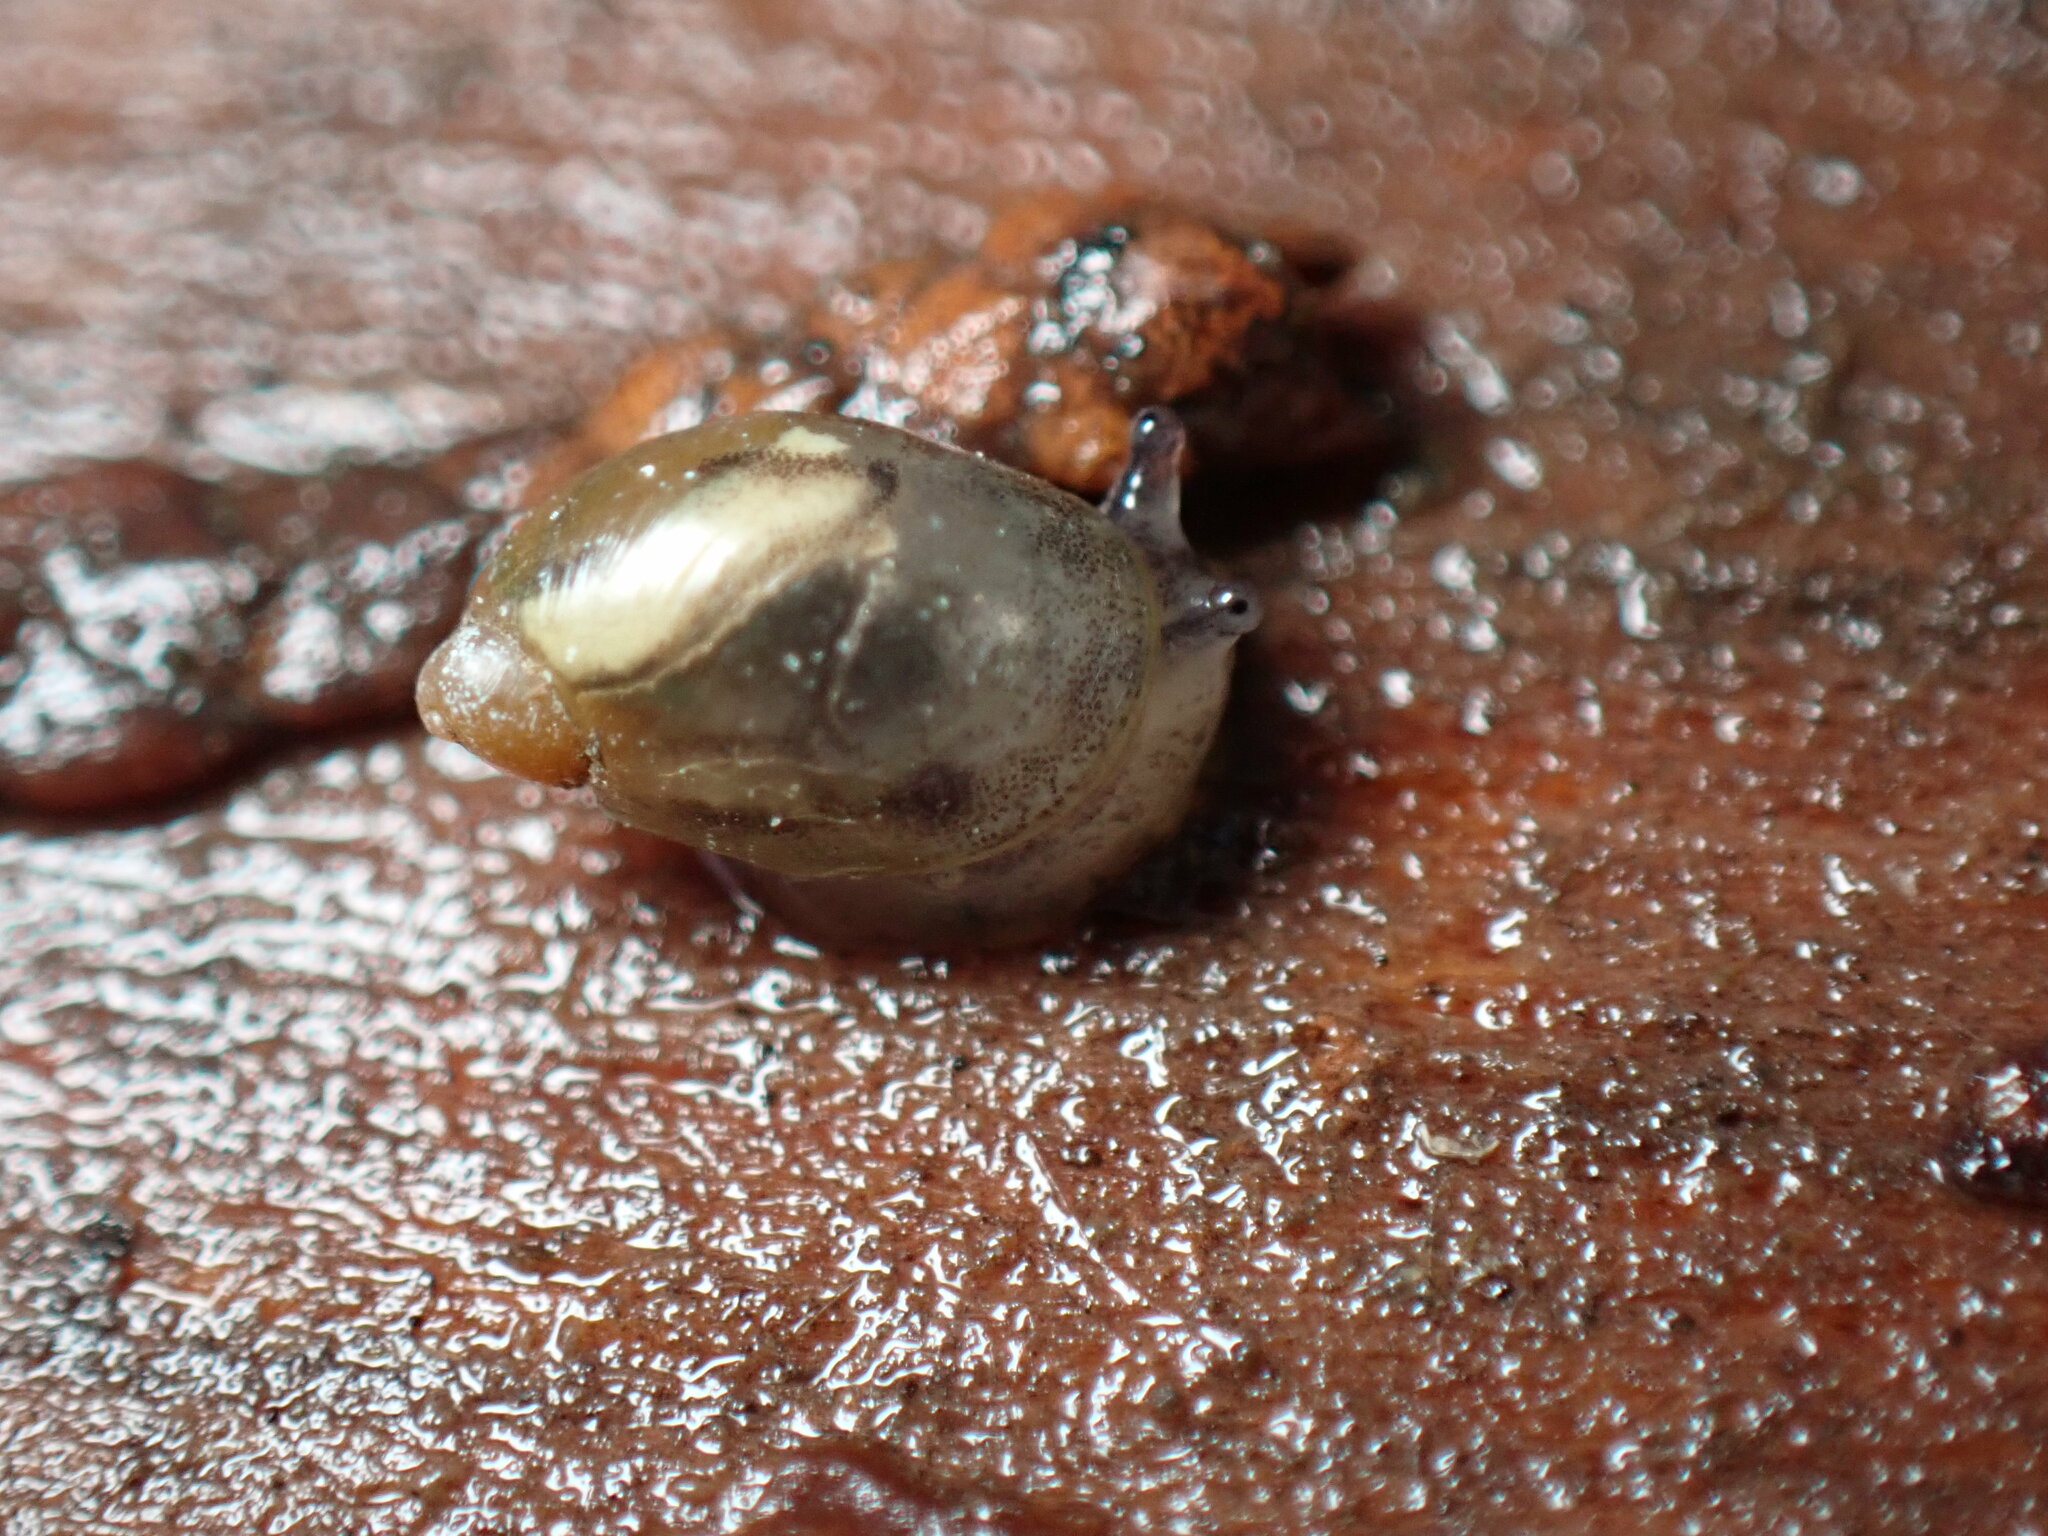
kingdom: Animalia
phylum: Mollusca
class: Gastropoda
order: Stylommatophora
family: Succineidae
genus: Novisuccinea
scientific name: Novisuccinea ovalis
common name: Oval ambersnail
